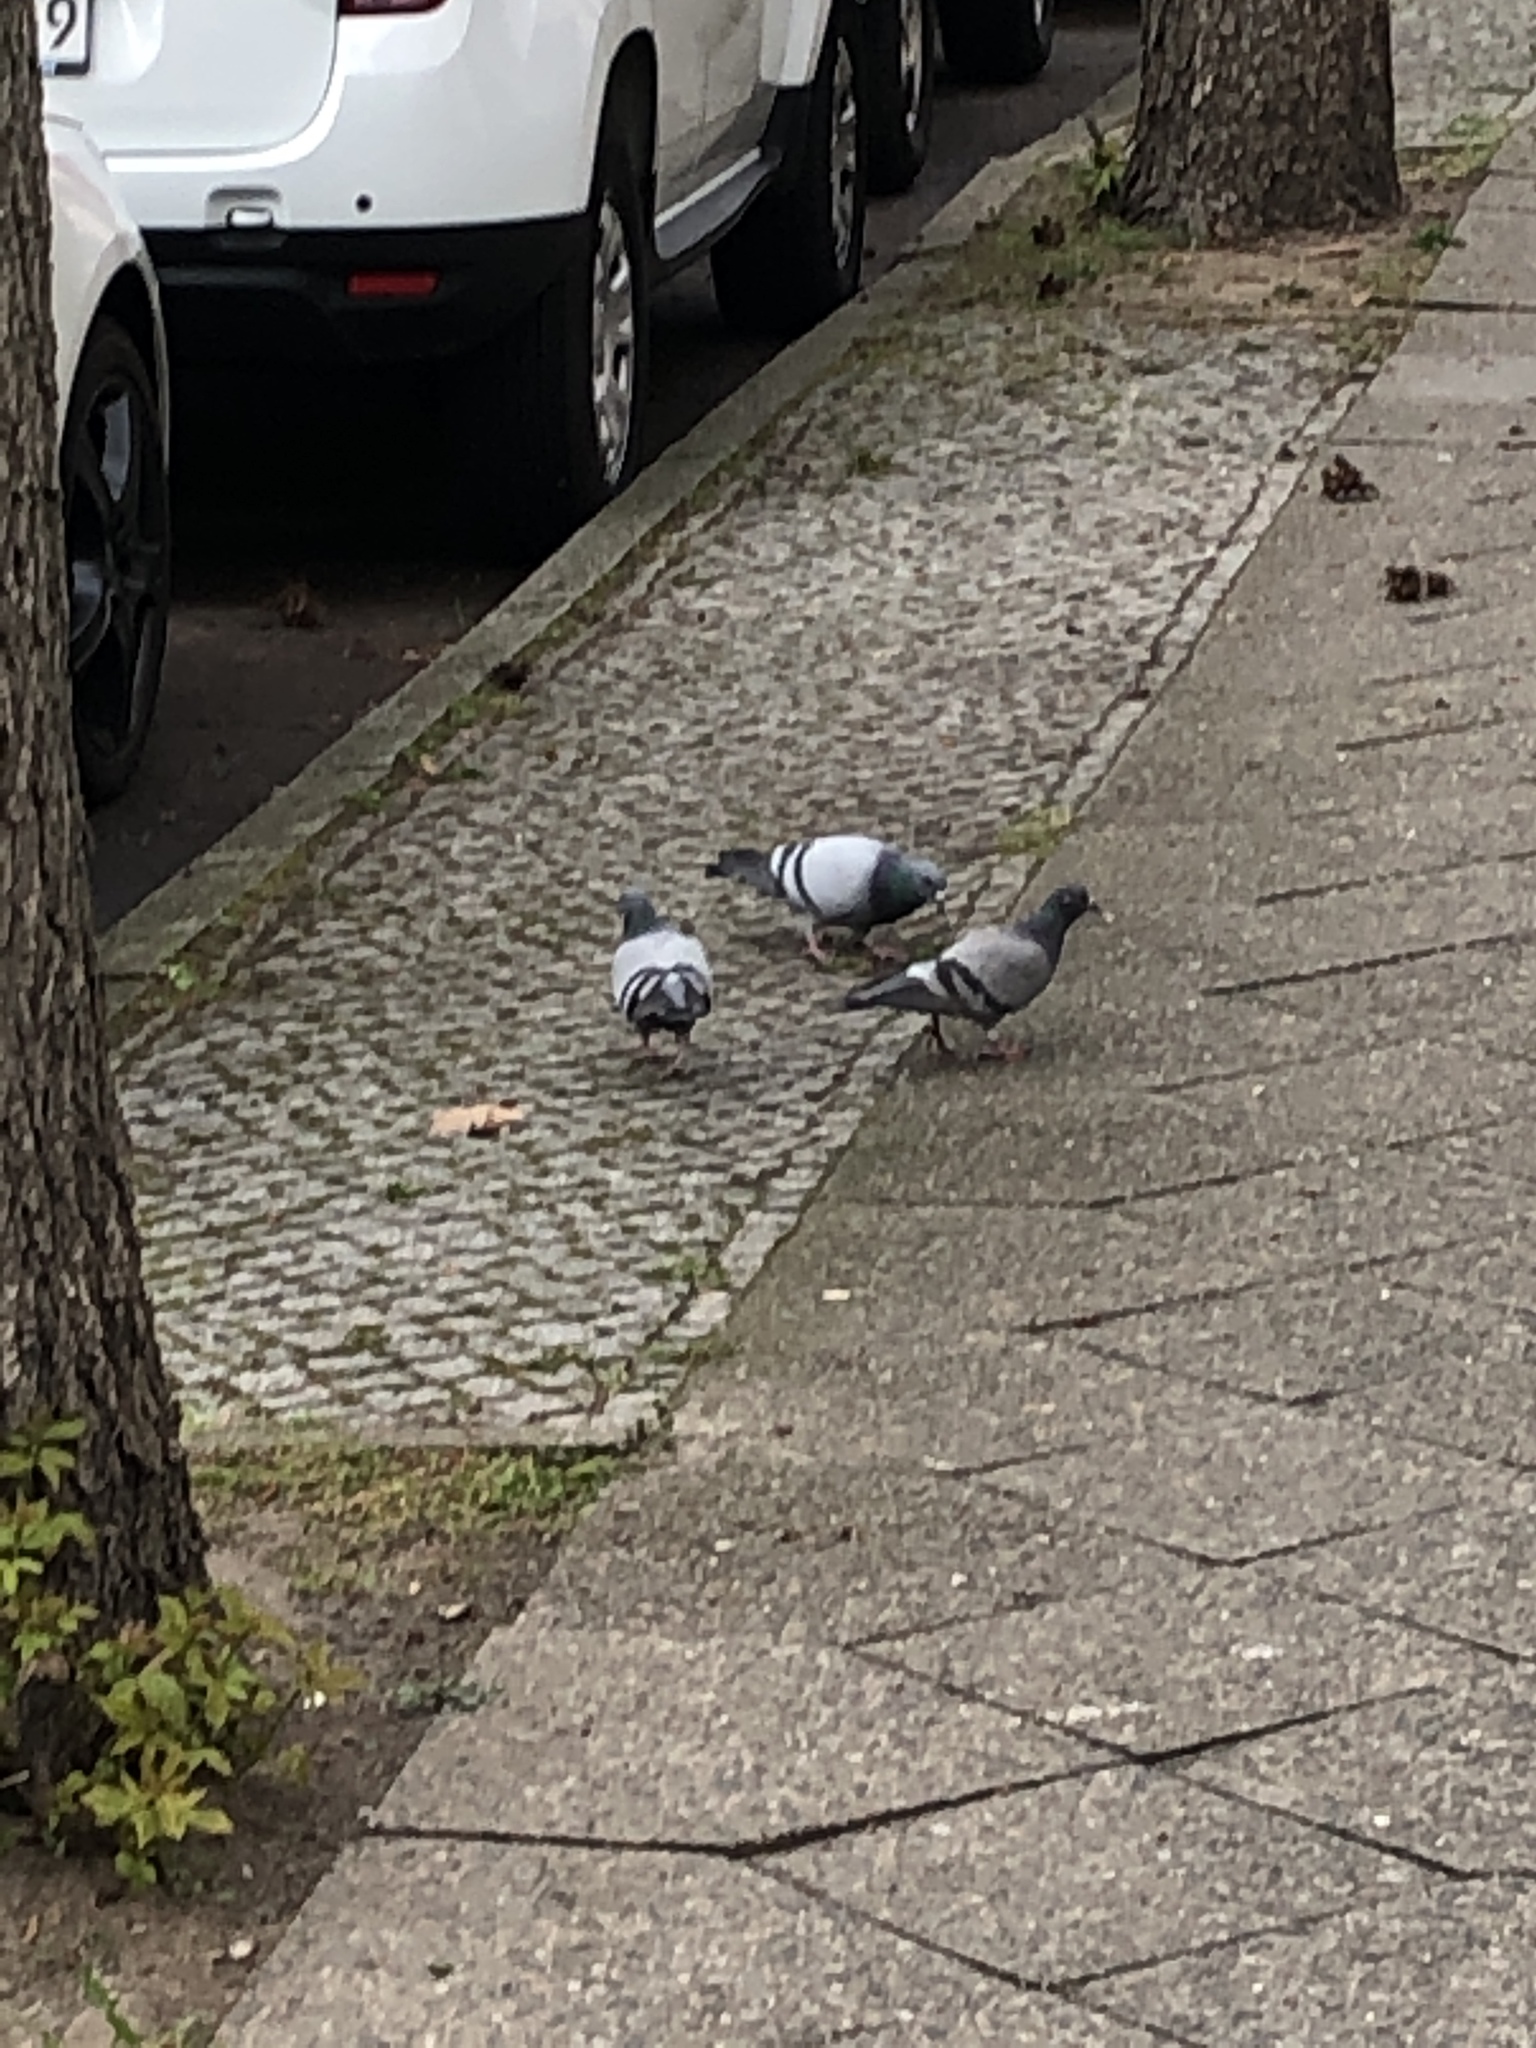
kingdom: Animalia
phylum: Chordata
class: Aves
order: Columbiformes
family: Columbidae
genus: Columba
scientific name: Columba livia
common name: Rock pigeon
